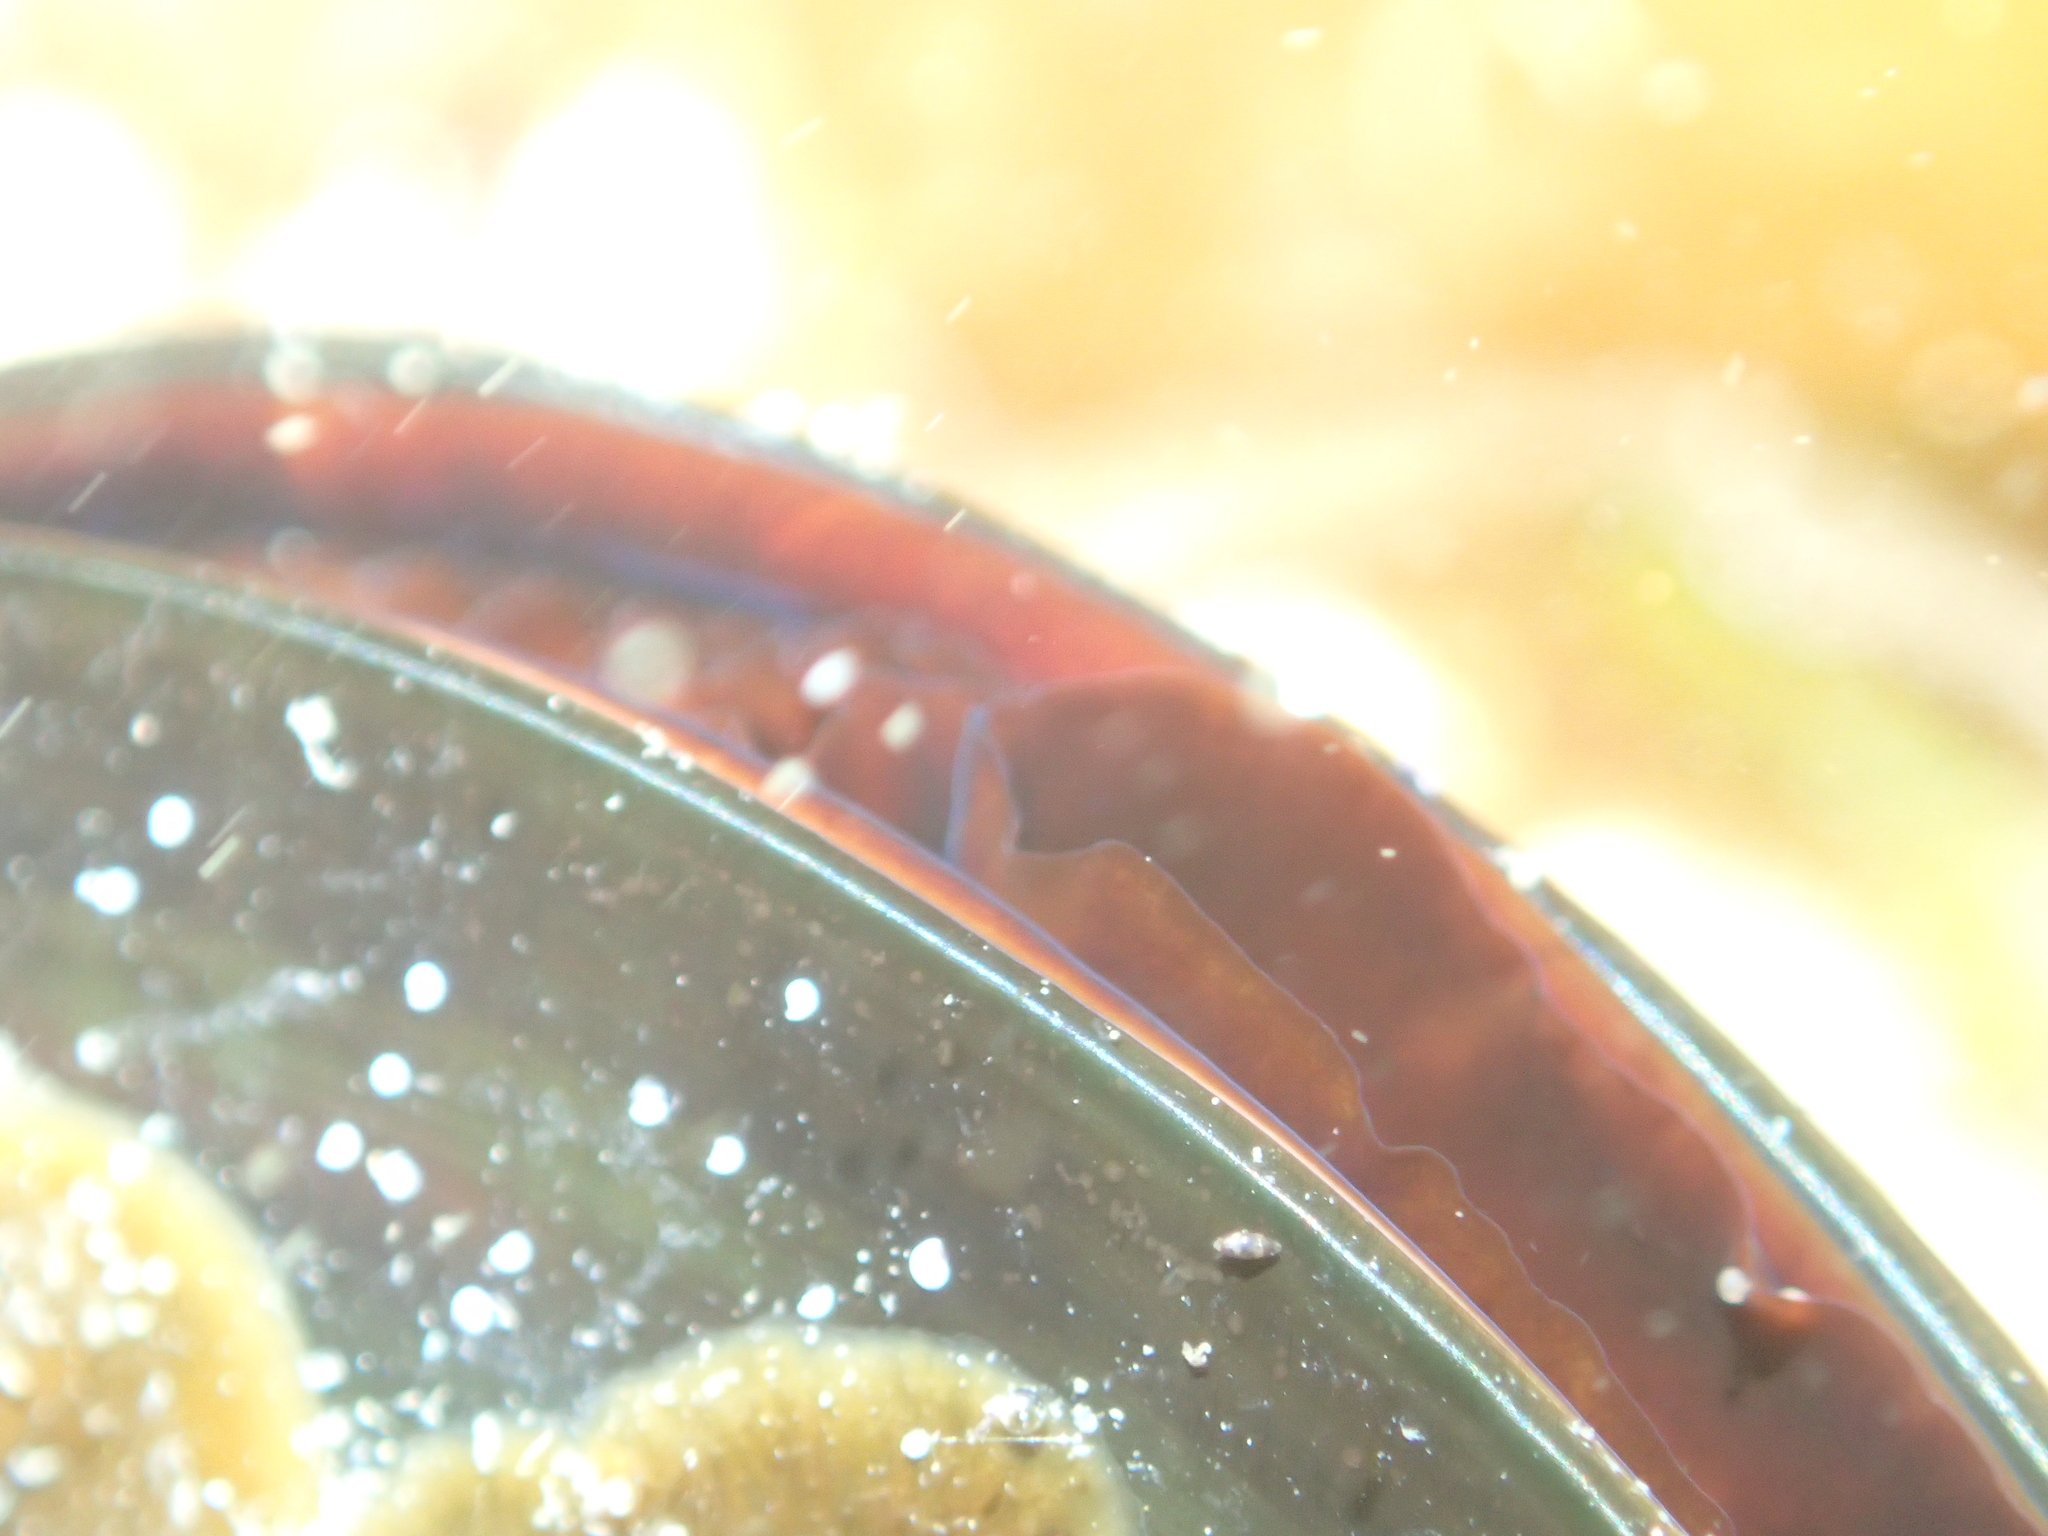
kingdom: Animalia
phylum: Mollusca
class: Bivalvia
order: Mytilida
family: Mytilidae
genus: Perna
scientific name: Perna canaliculus
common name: New zealand greenshelltm
